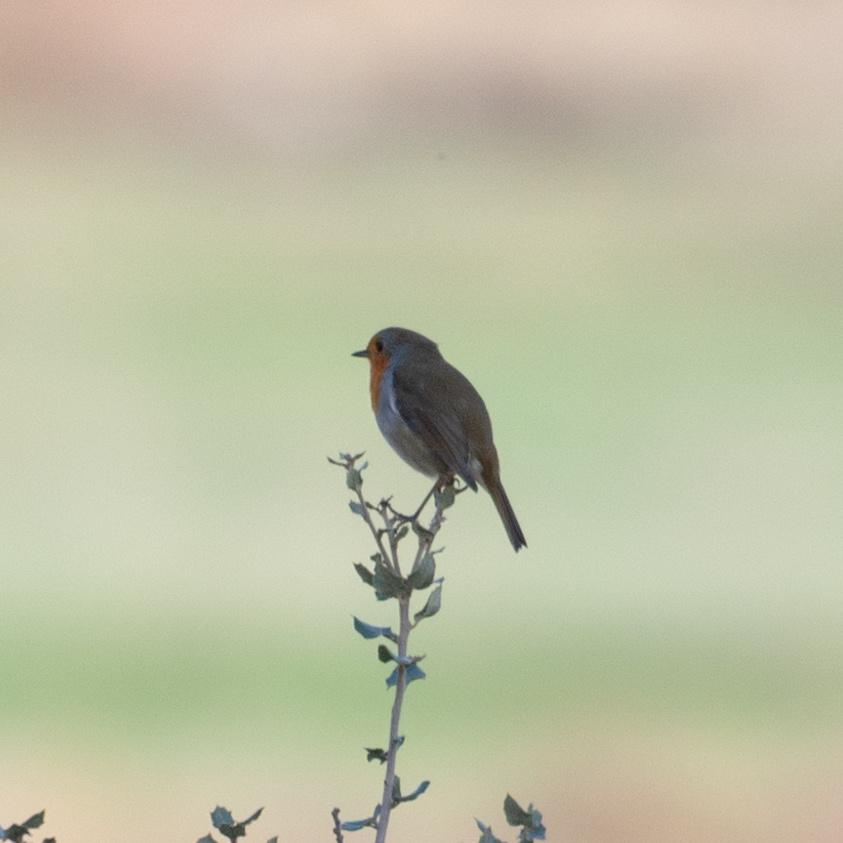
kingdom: Animalia
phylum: Chordata
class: Aves
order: Passeriformes
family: Muscicapidae
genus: Erithacus
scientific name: Erithacus rubecula
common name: European robin
